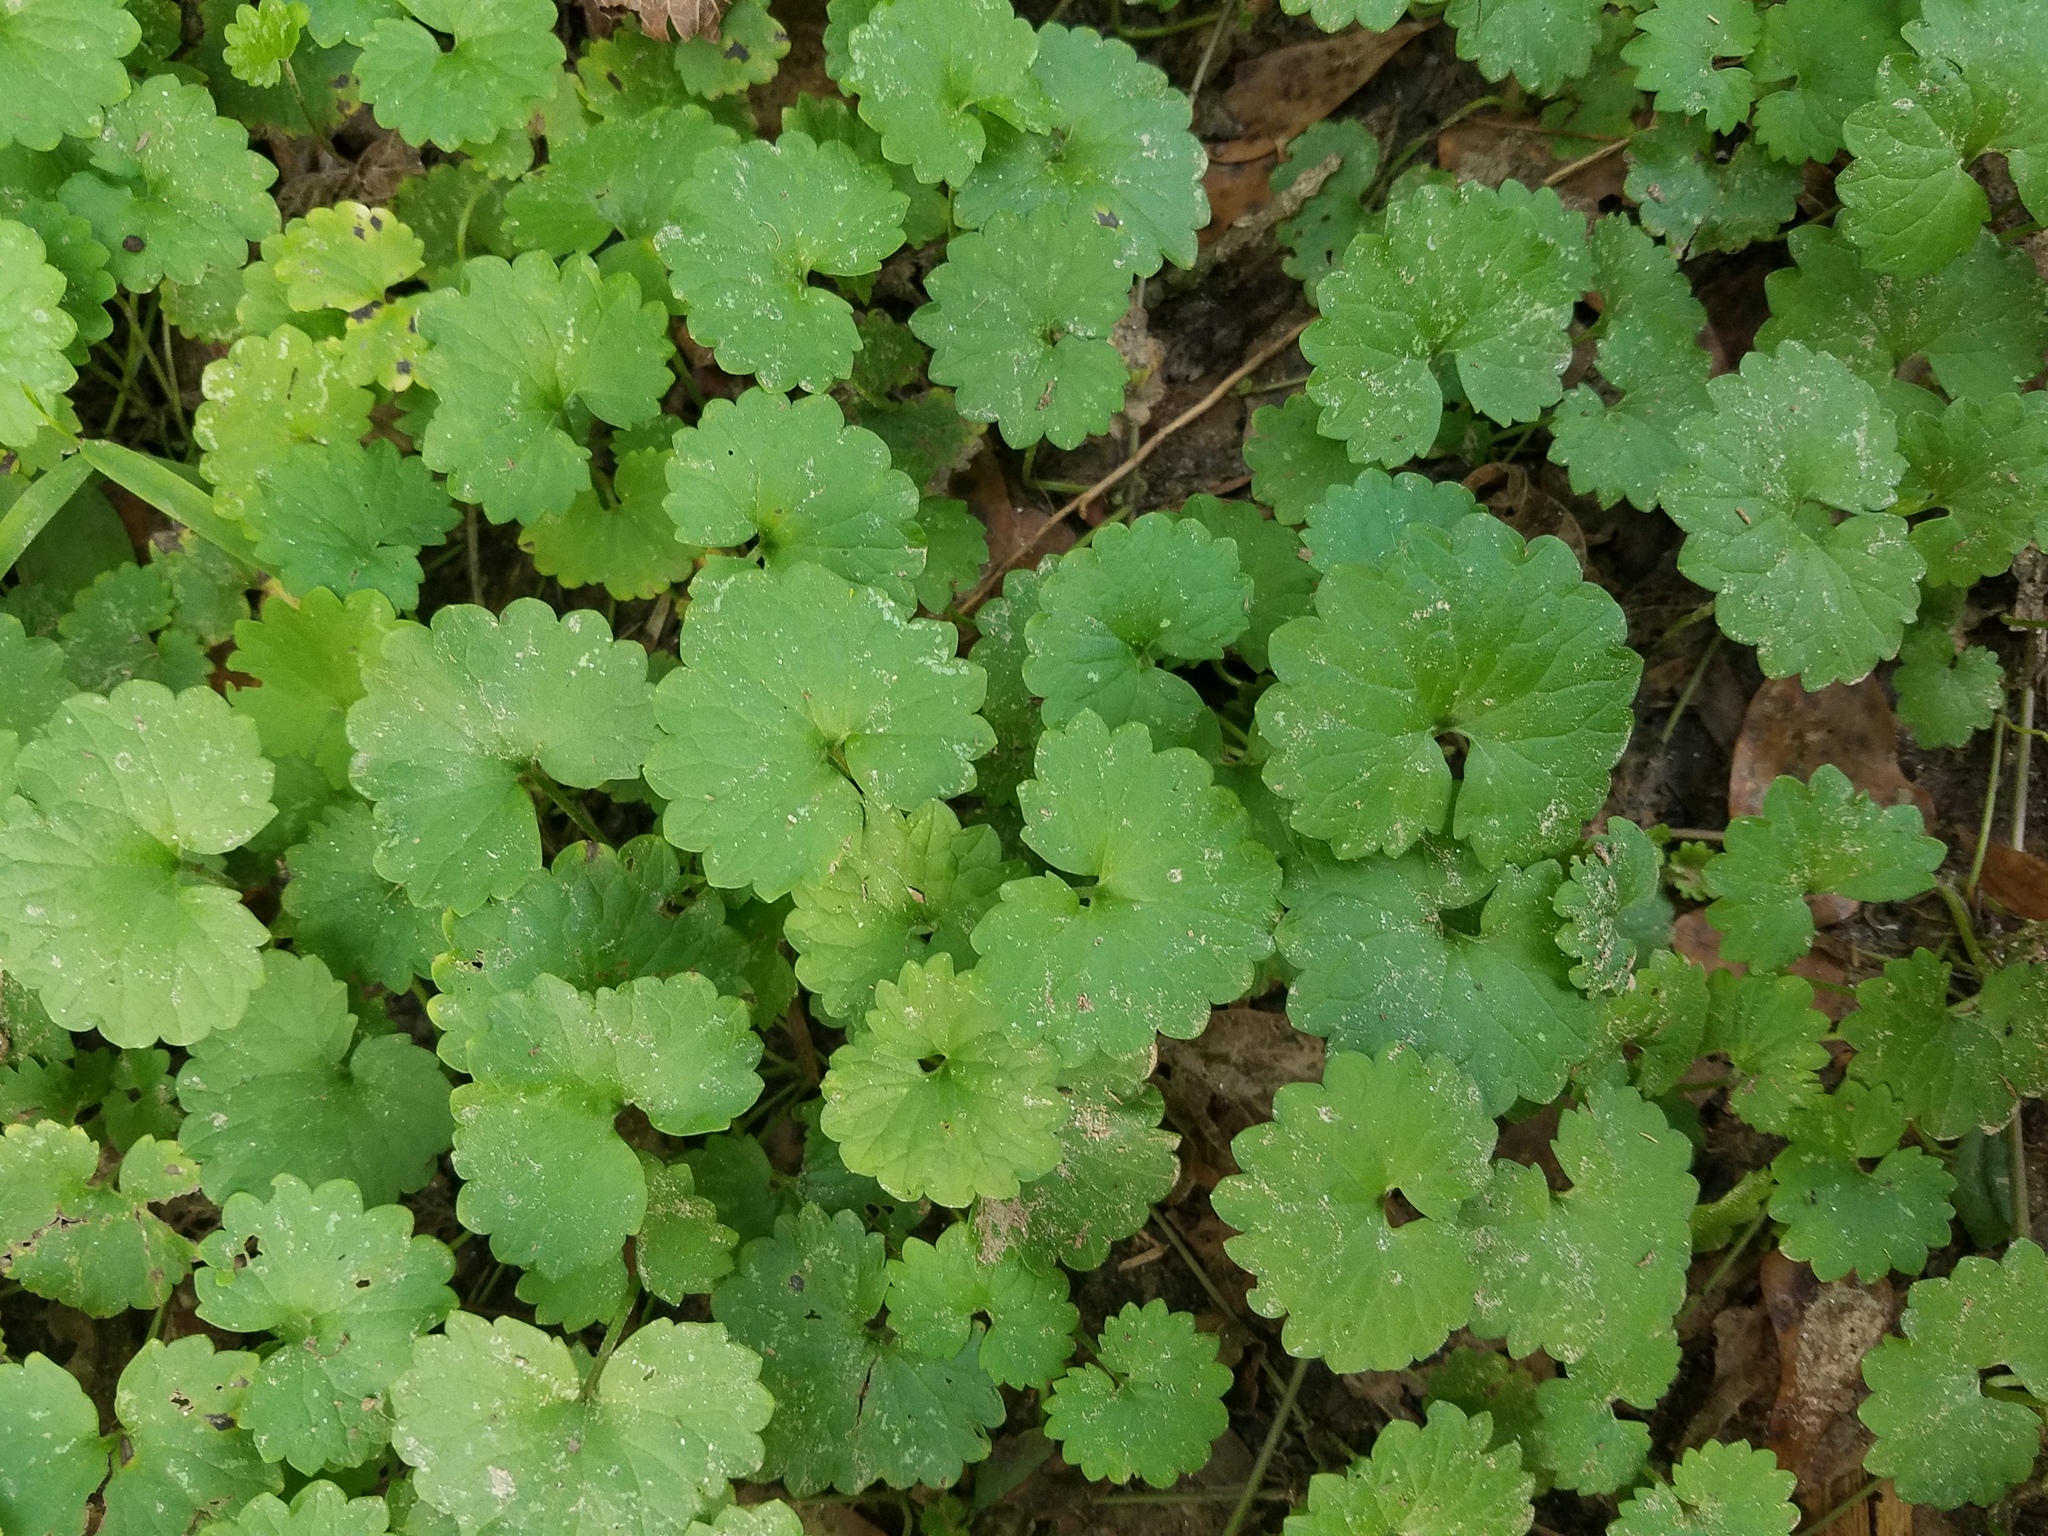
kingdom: Plantae
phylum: Tracheophyta
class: Magnoliopsida
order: Lamiales
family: Lamiaceae
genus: Glechoma
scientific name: Glechoma hederacea
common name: Ground ivy
